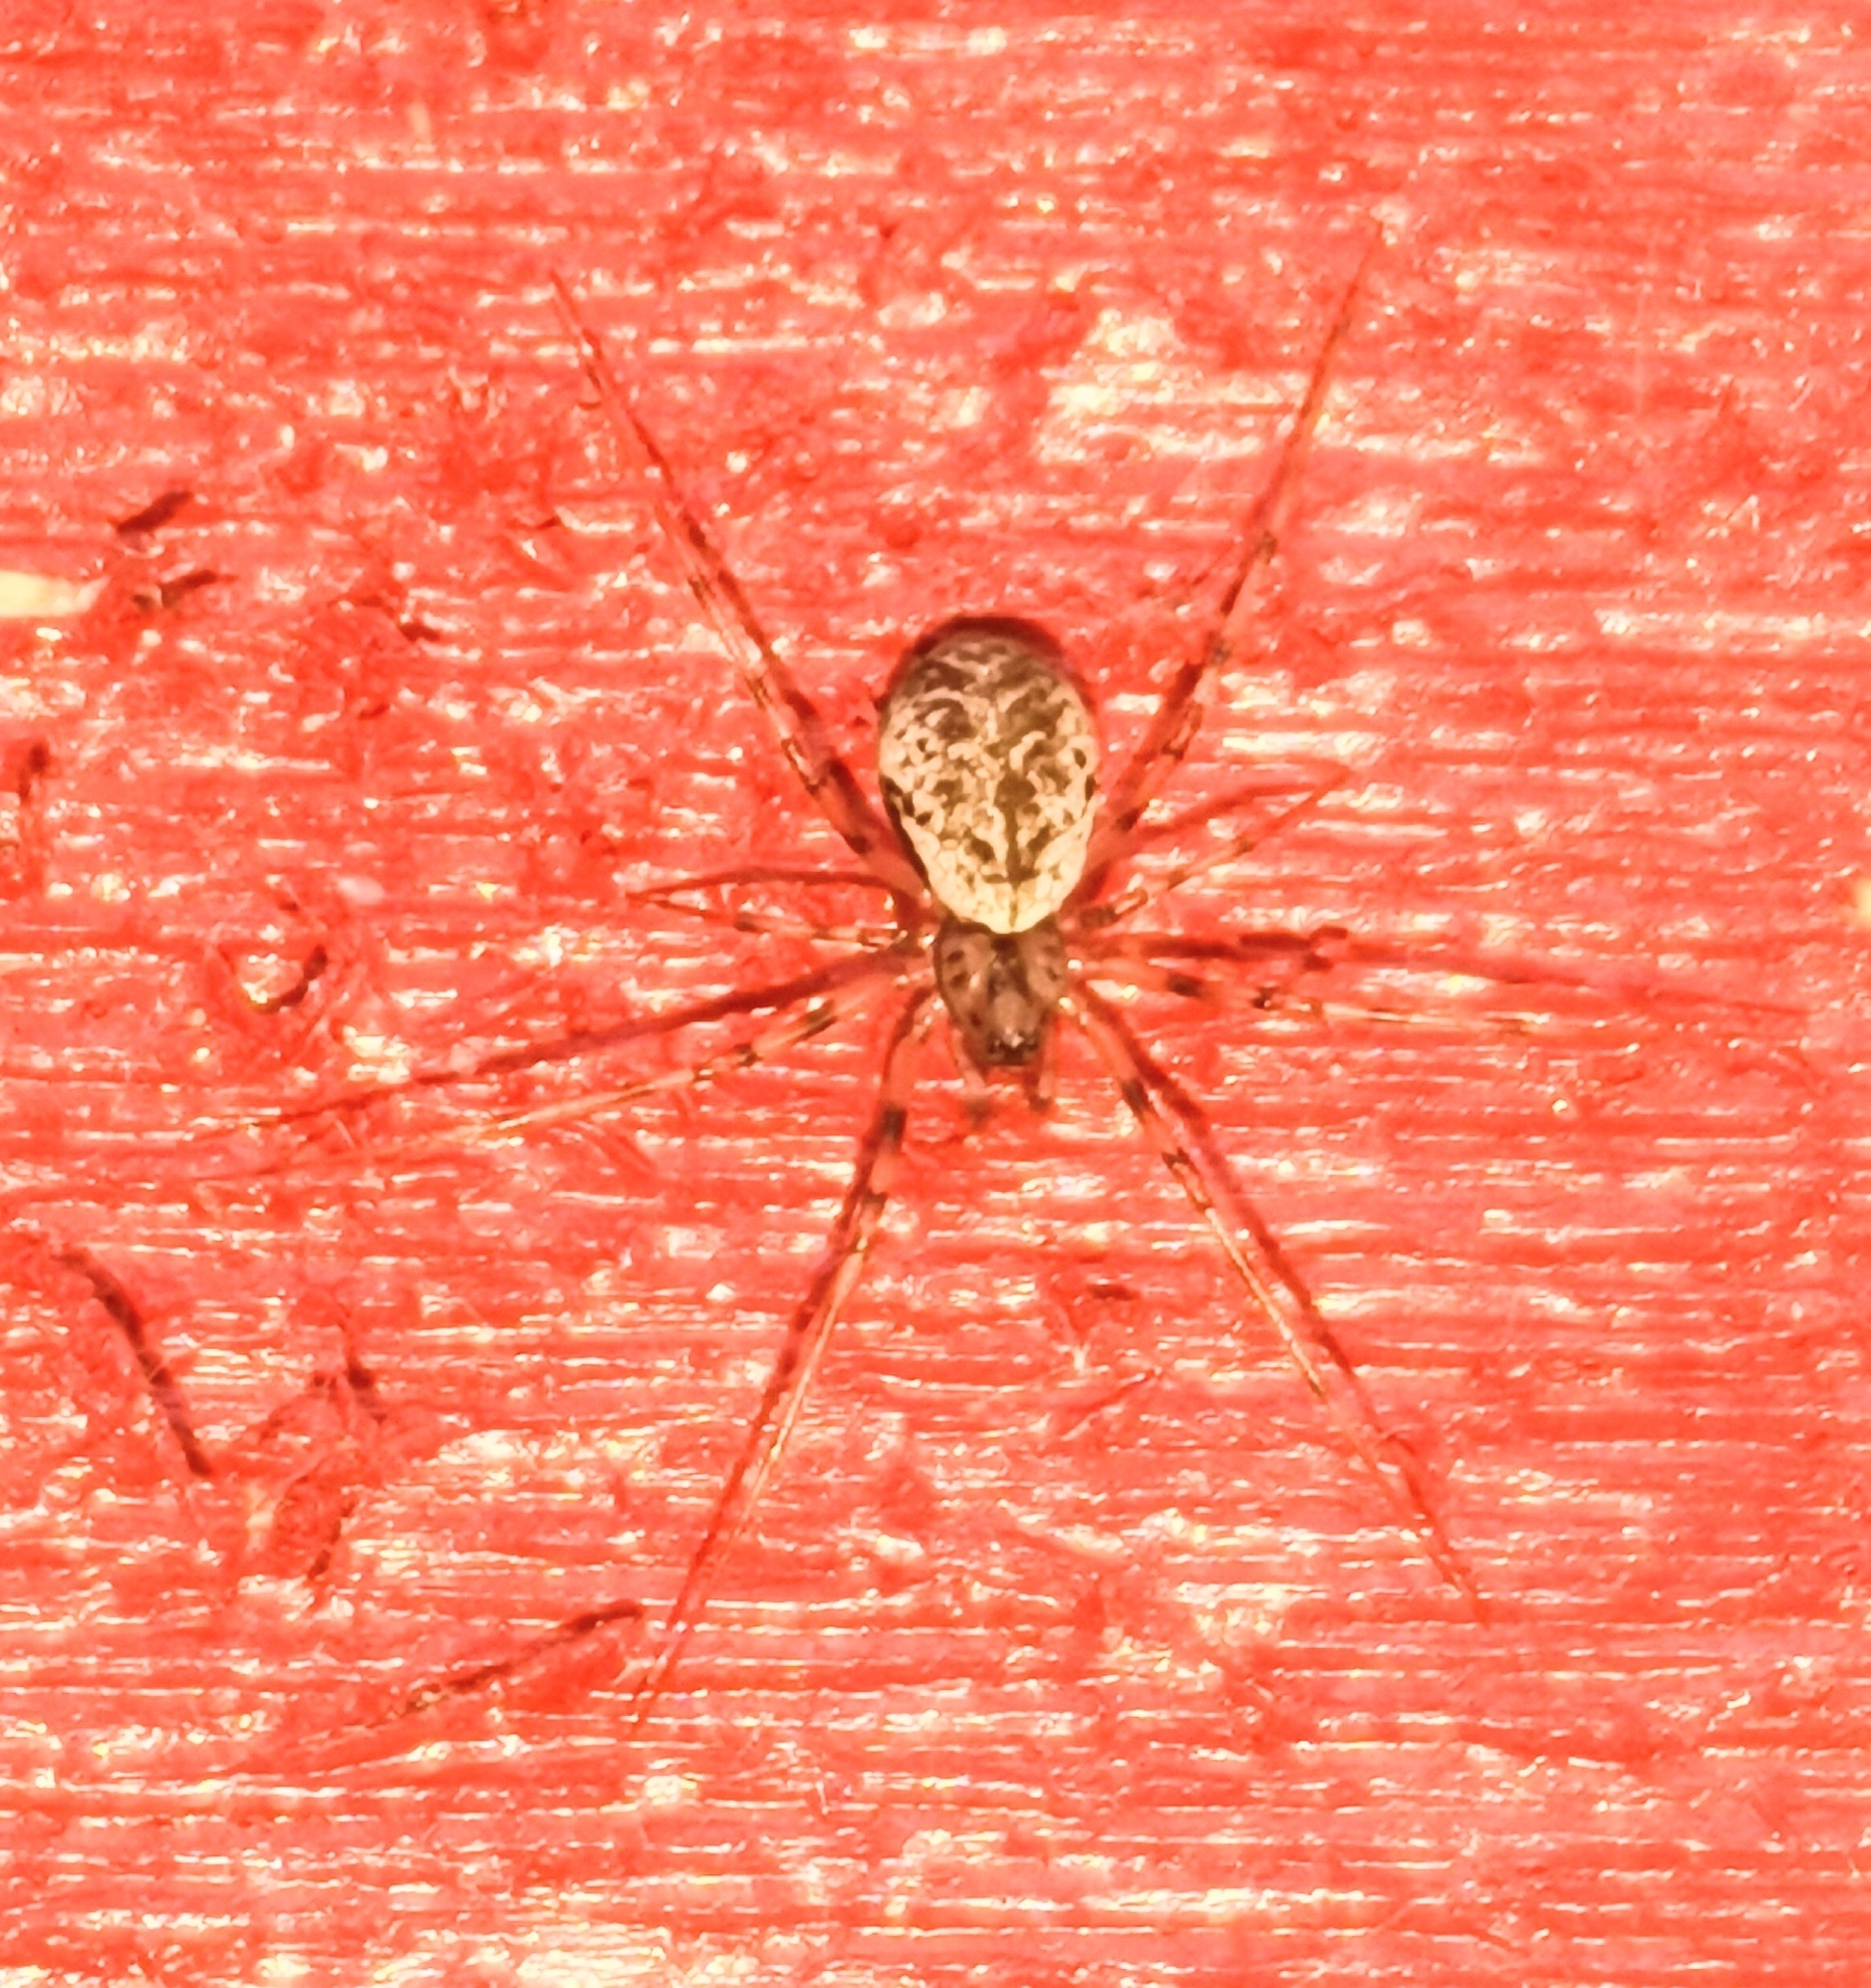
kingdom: Animalia
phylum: Arthropoda
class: Arachnida
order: Araneae
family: Linyphiidae
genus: Drapetisca
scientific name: Drapetisca socialis
